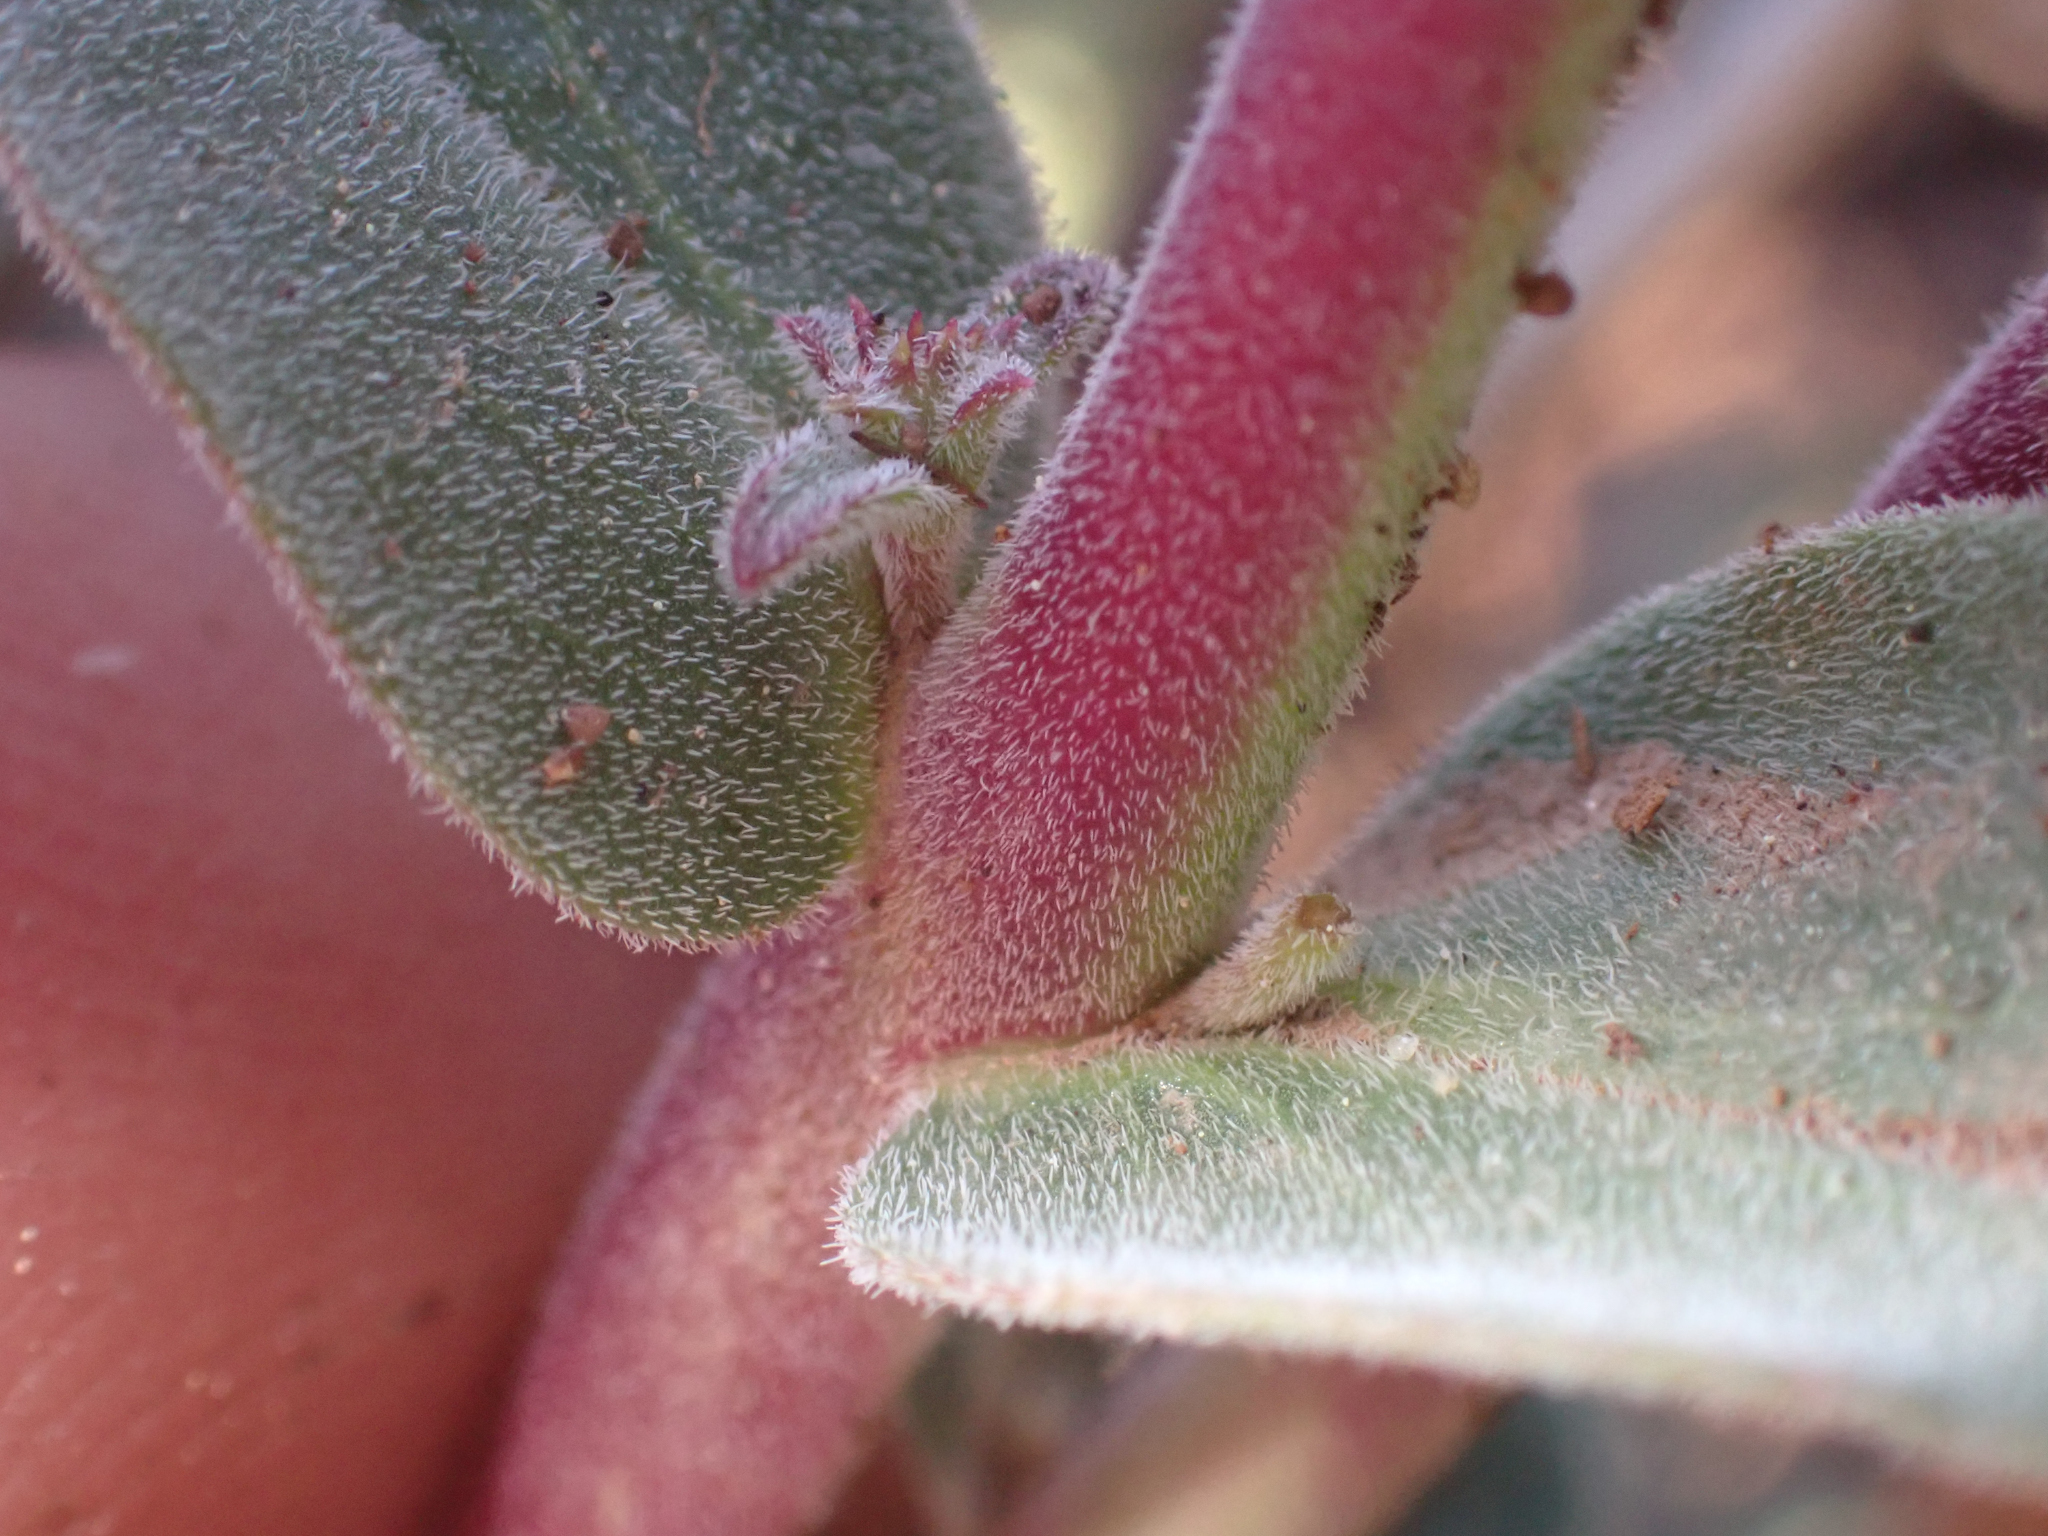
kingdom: Plantae
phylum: Tracheophyta
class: Magnoliopsida
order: Lamiales
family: Plantaginaceae
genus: Penstemon
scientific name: Penstemon laetus
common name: Gay penstemon
